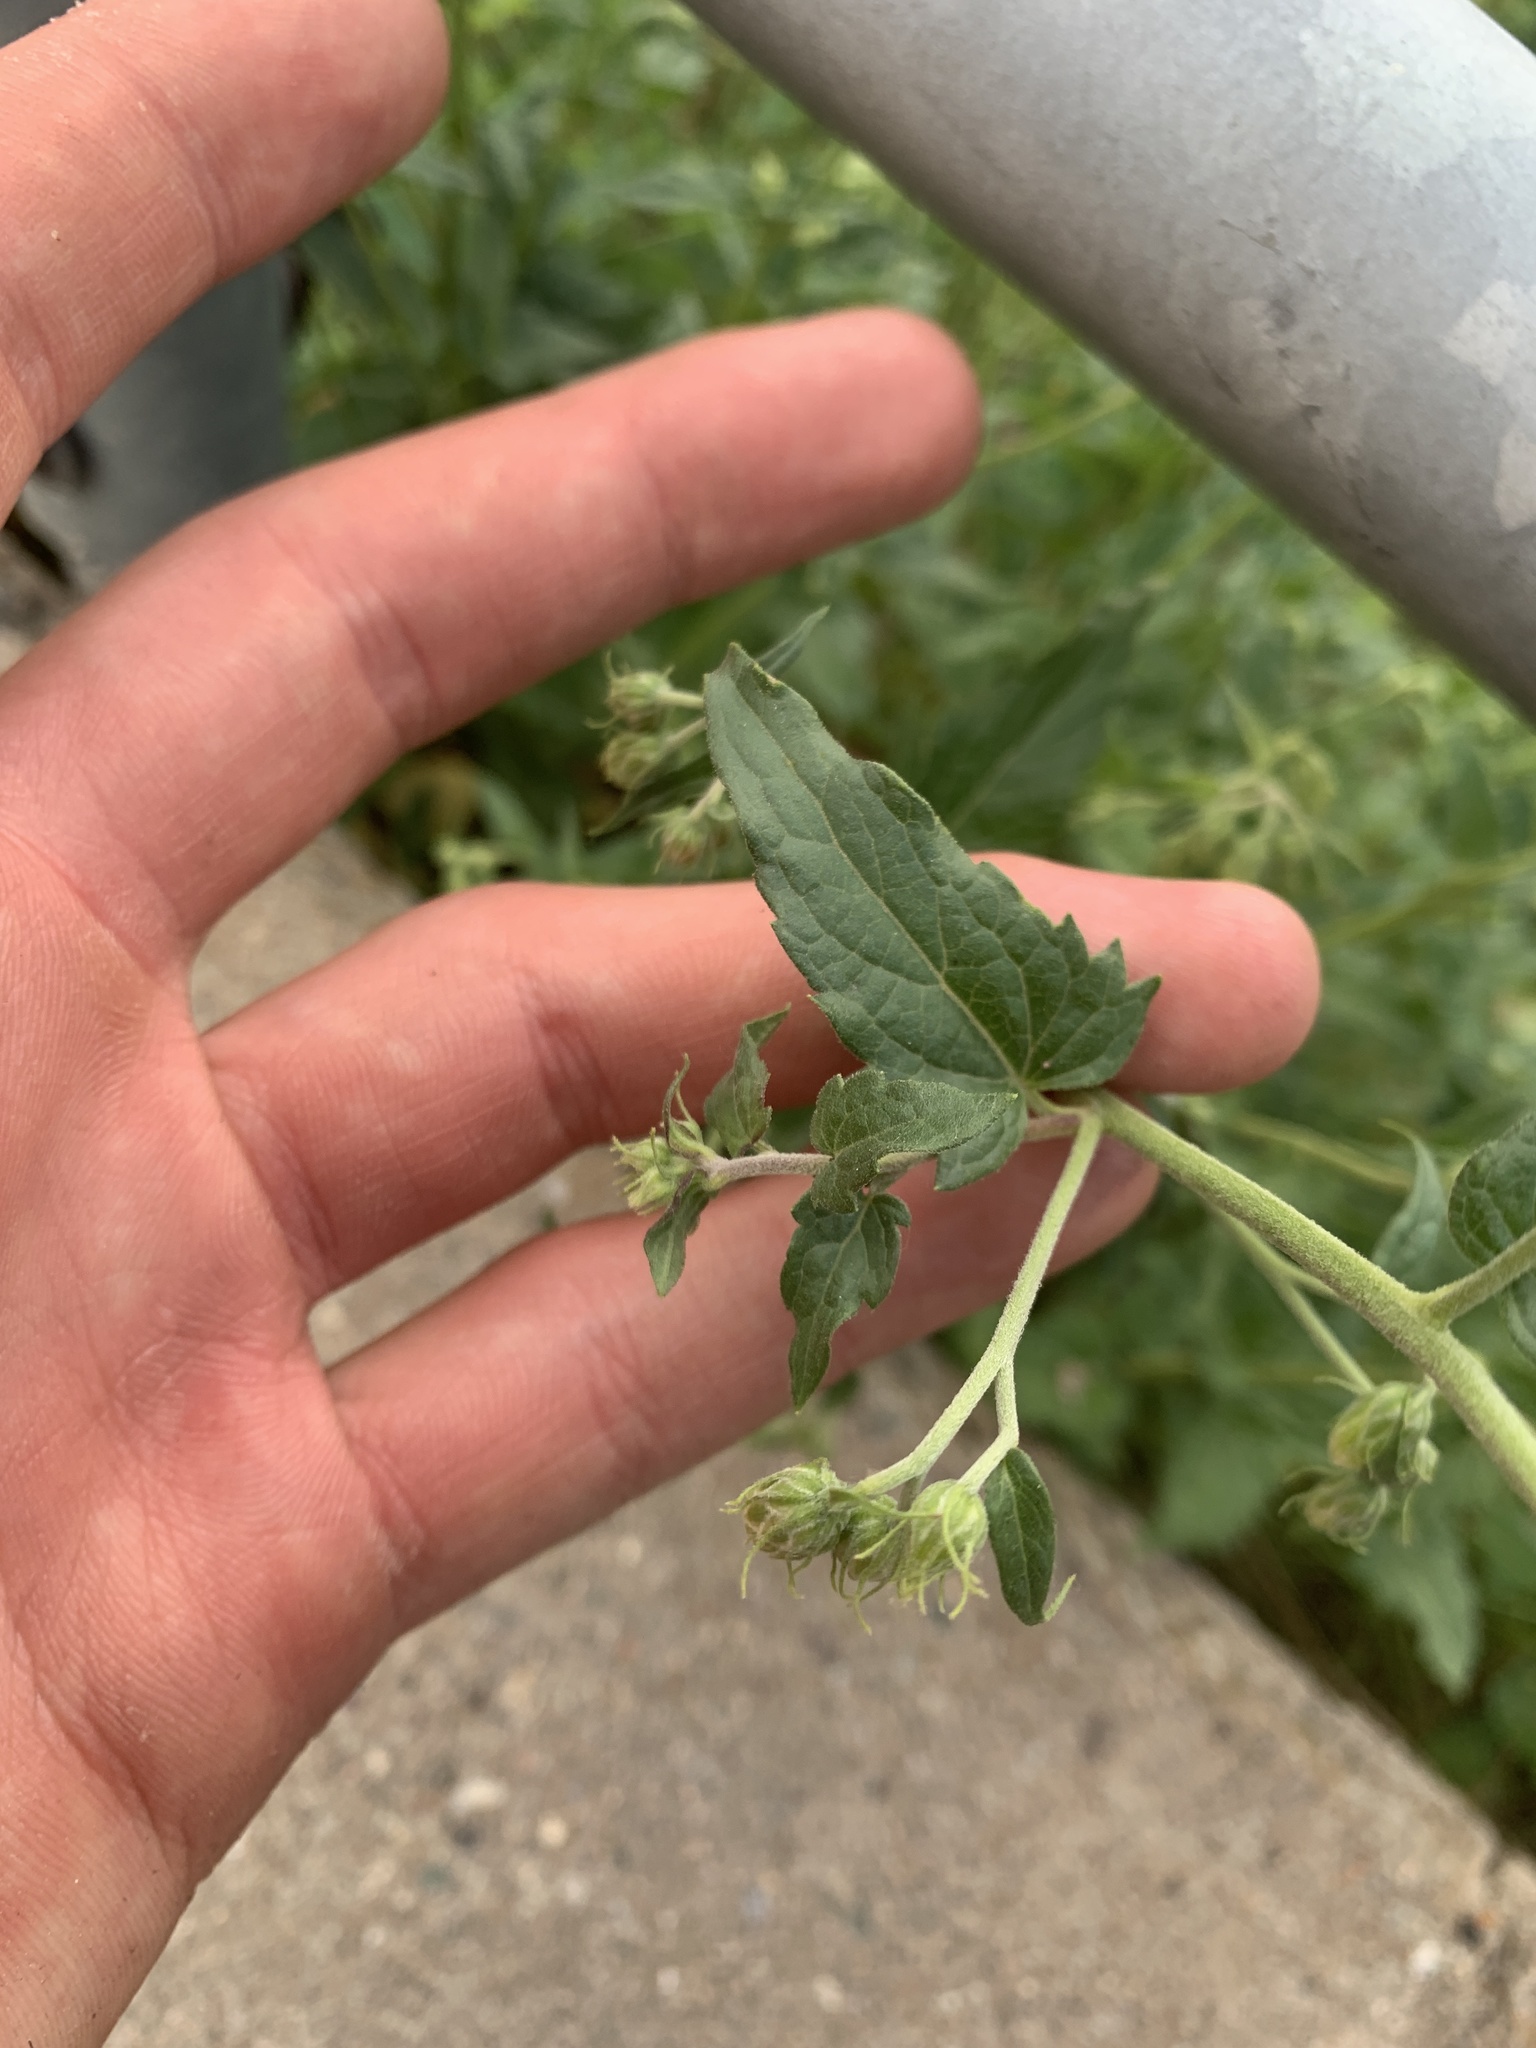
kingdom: Plantae
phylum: Tracheophyta
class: Magnoliopsida
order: Asterales
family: Asteraceae
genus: Brickellia
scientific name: Brickellia grandiflora
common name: Large-flowered brickellia
